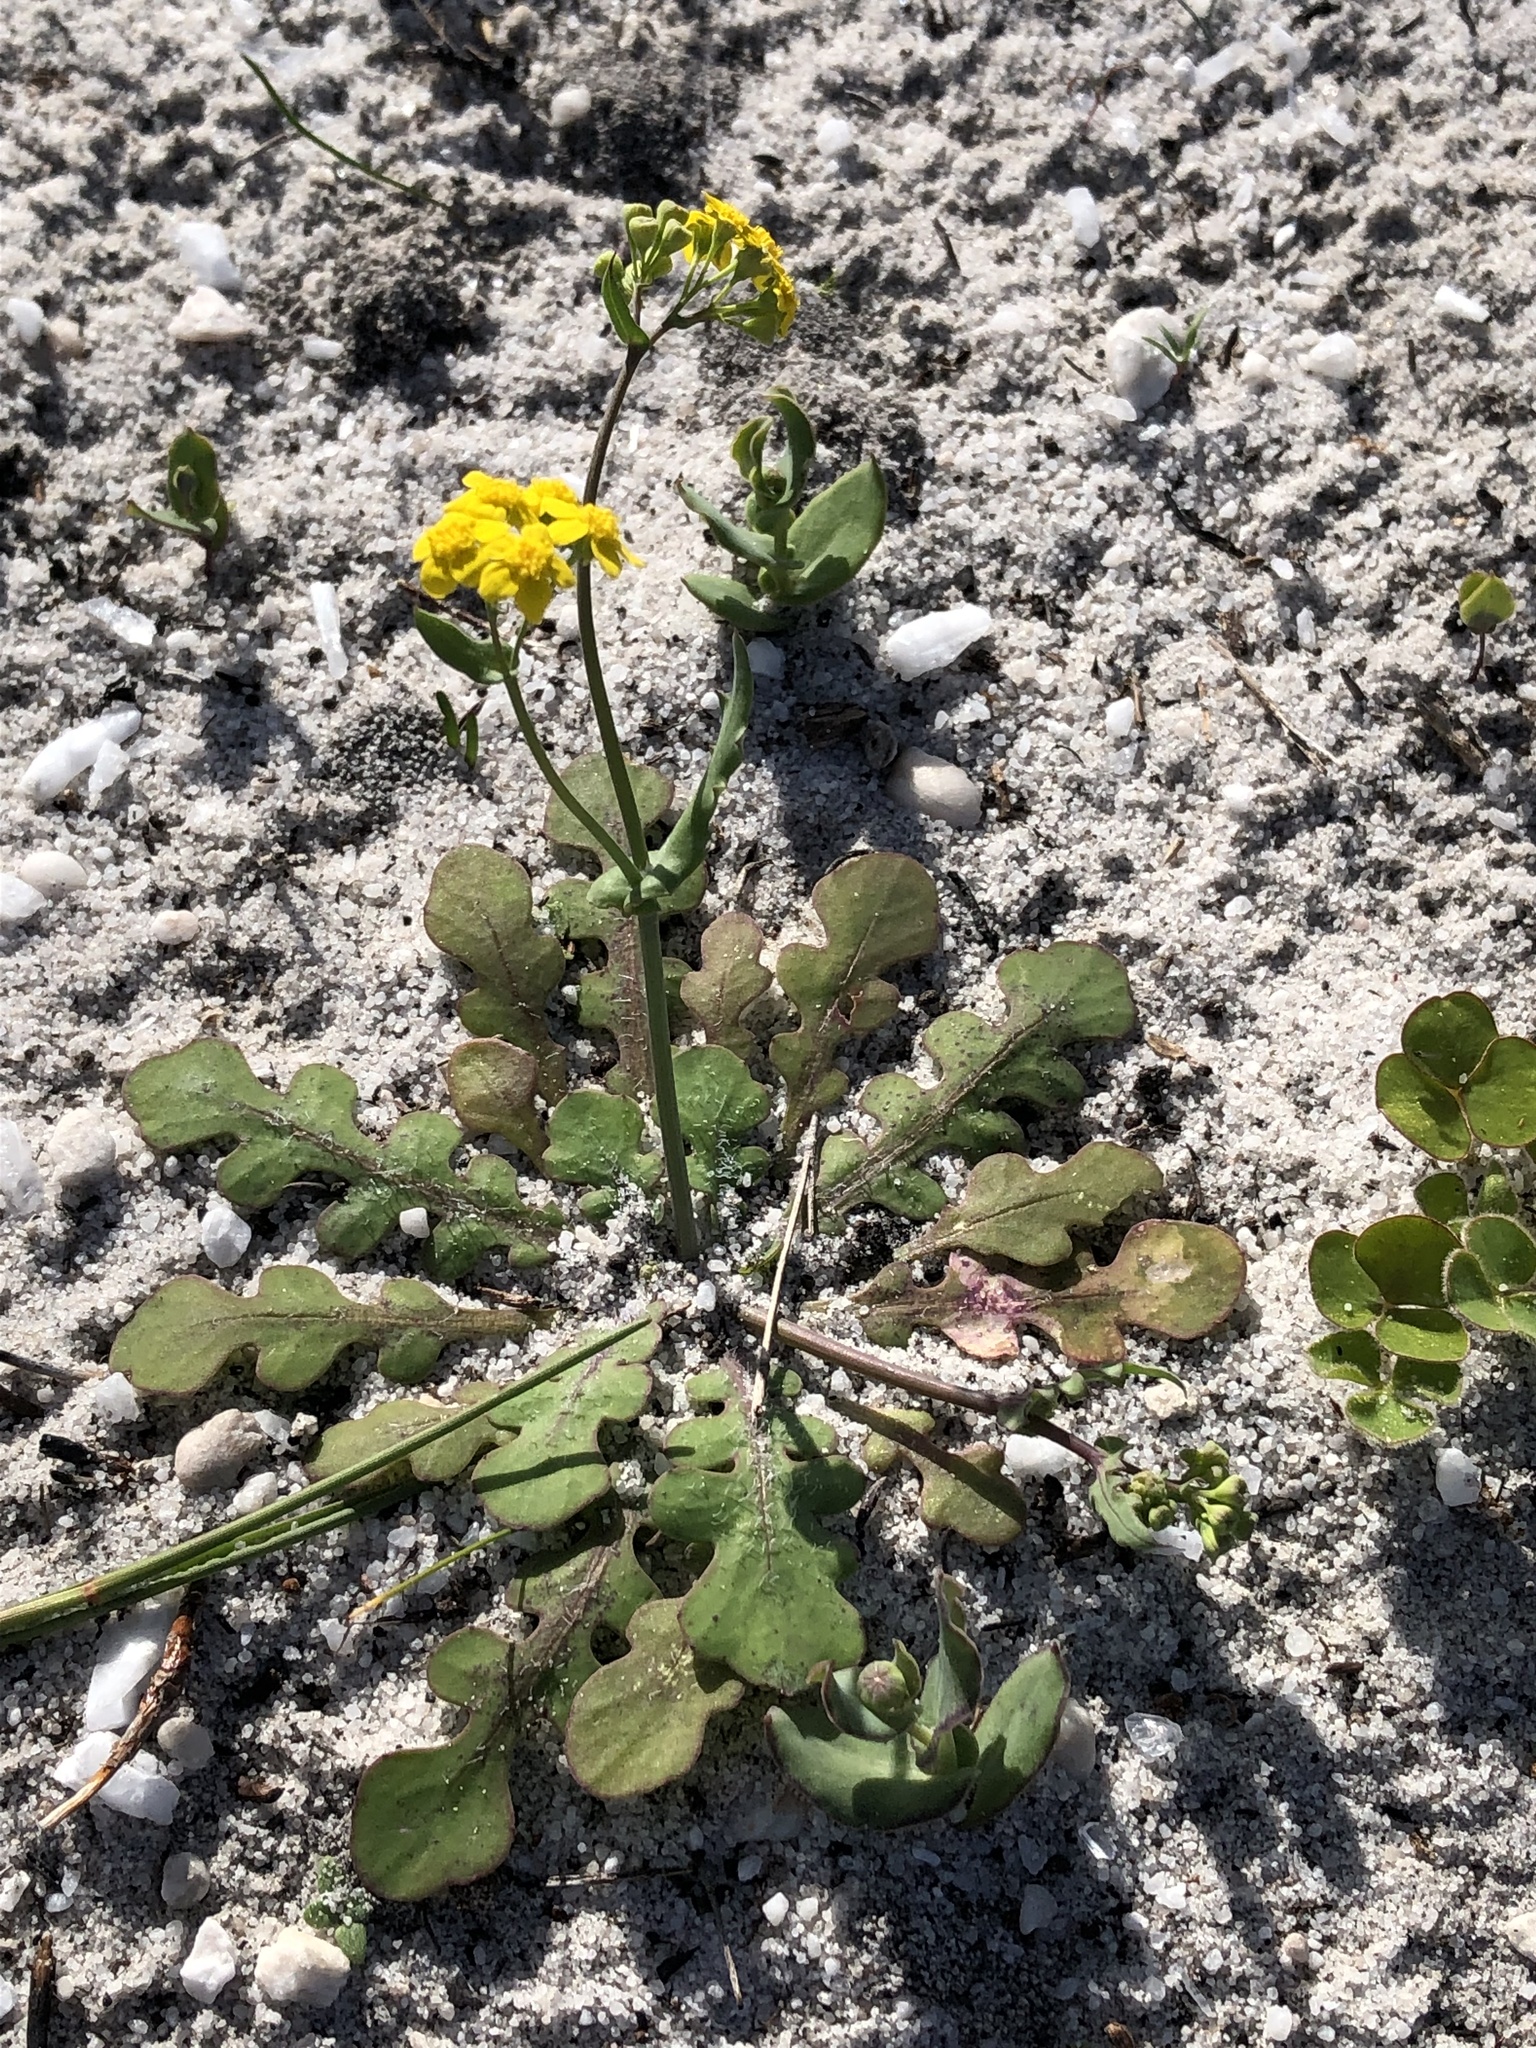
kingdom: Plantae
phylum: Tracheophyta
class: Magnoliopsida
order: Asterales
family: Asteraceae
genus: Gymnodiscus
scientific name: Gymnodiscus capillaris
